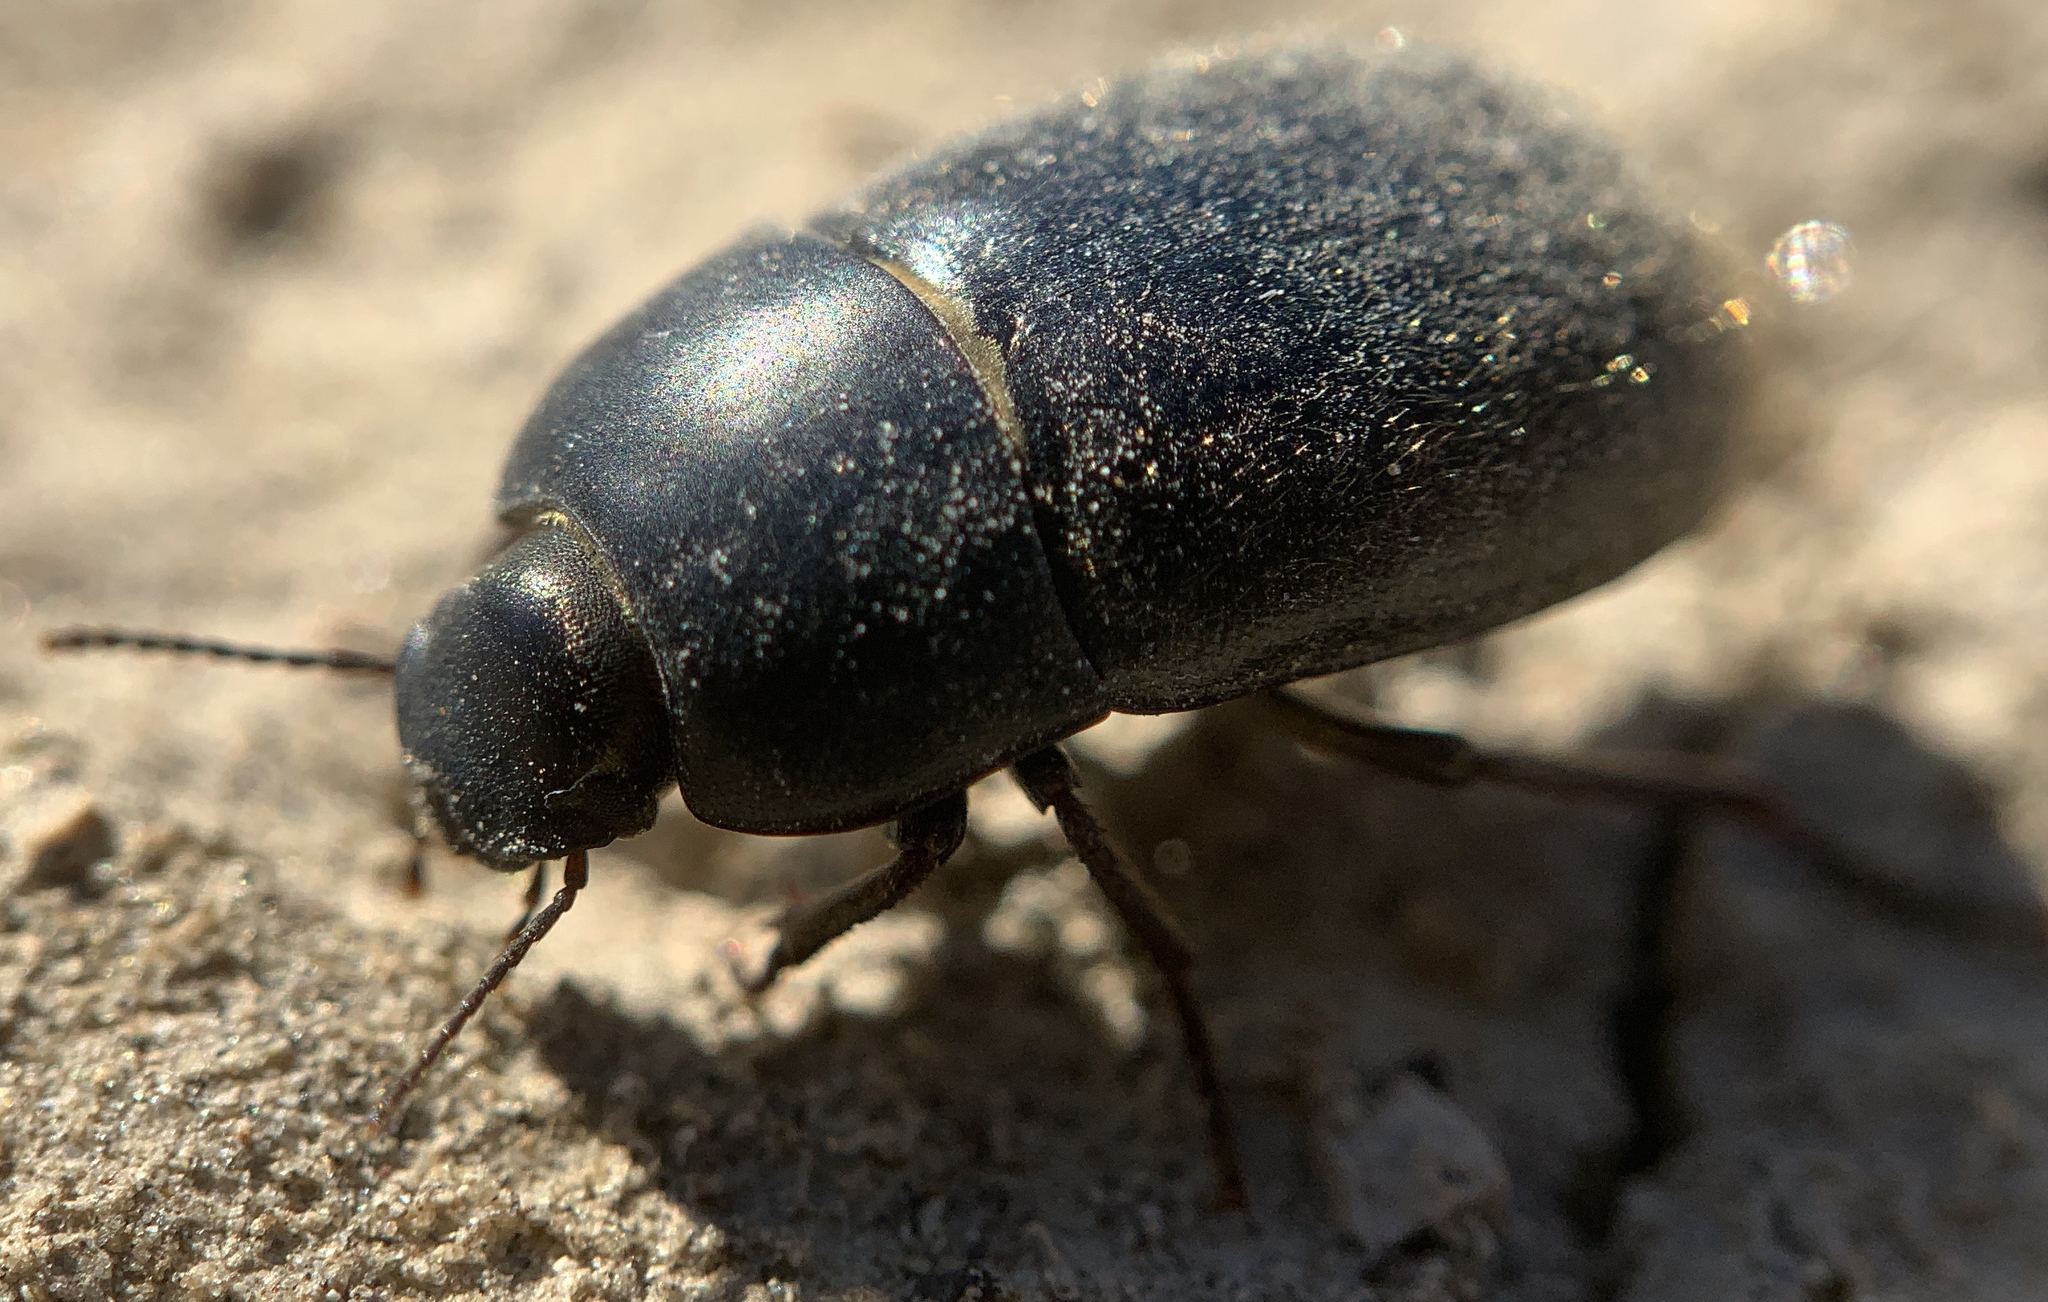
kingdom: Animalia
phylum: Arthropoda
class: Insecta
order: Coleoptera
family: Tenebrionidae
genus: Coniontis
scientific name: Coniontis
